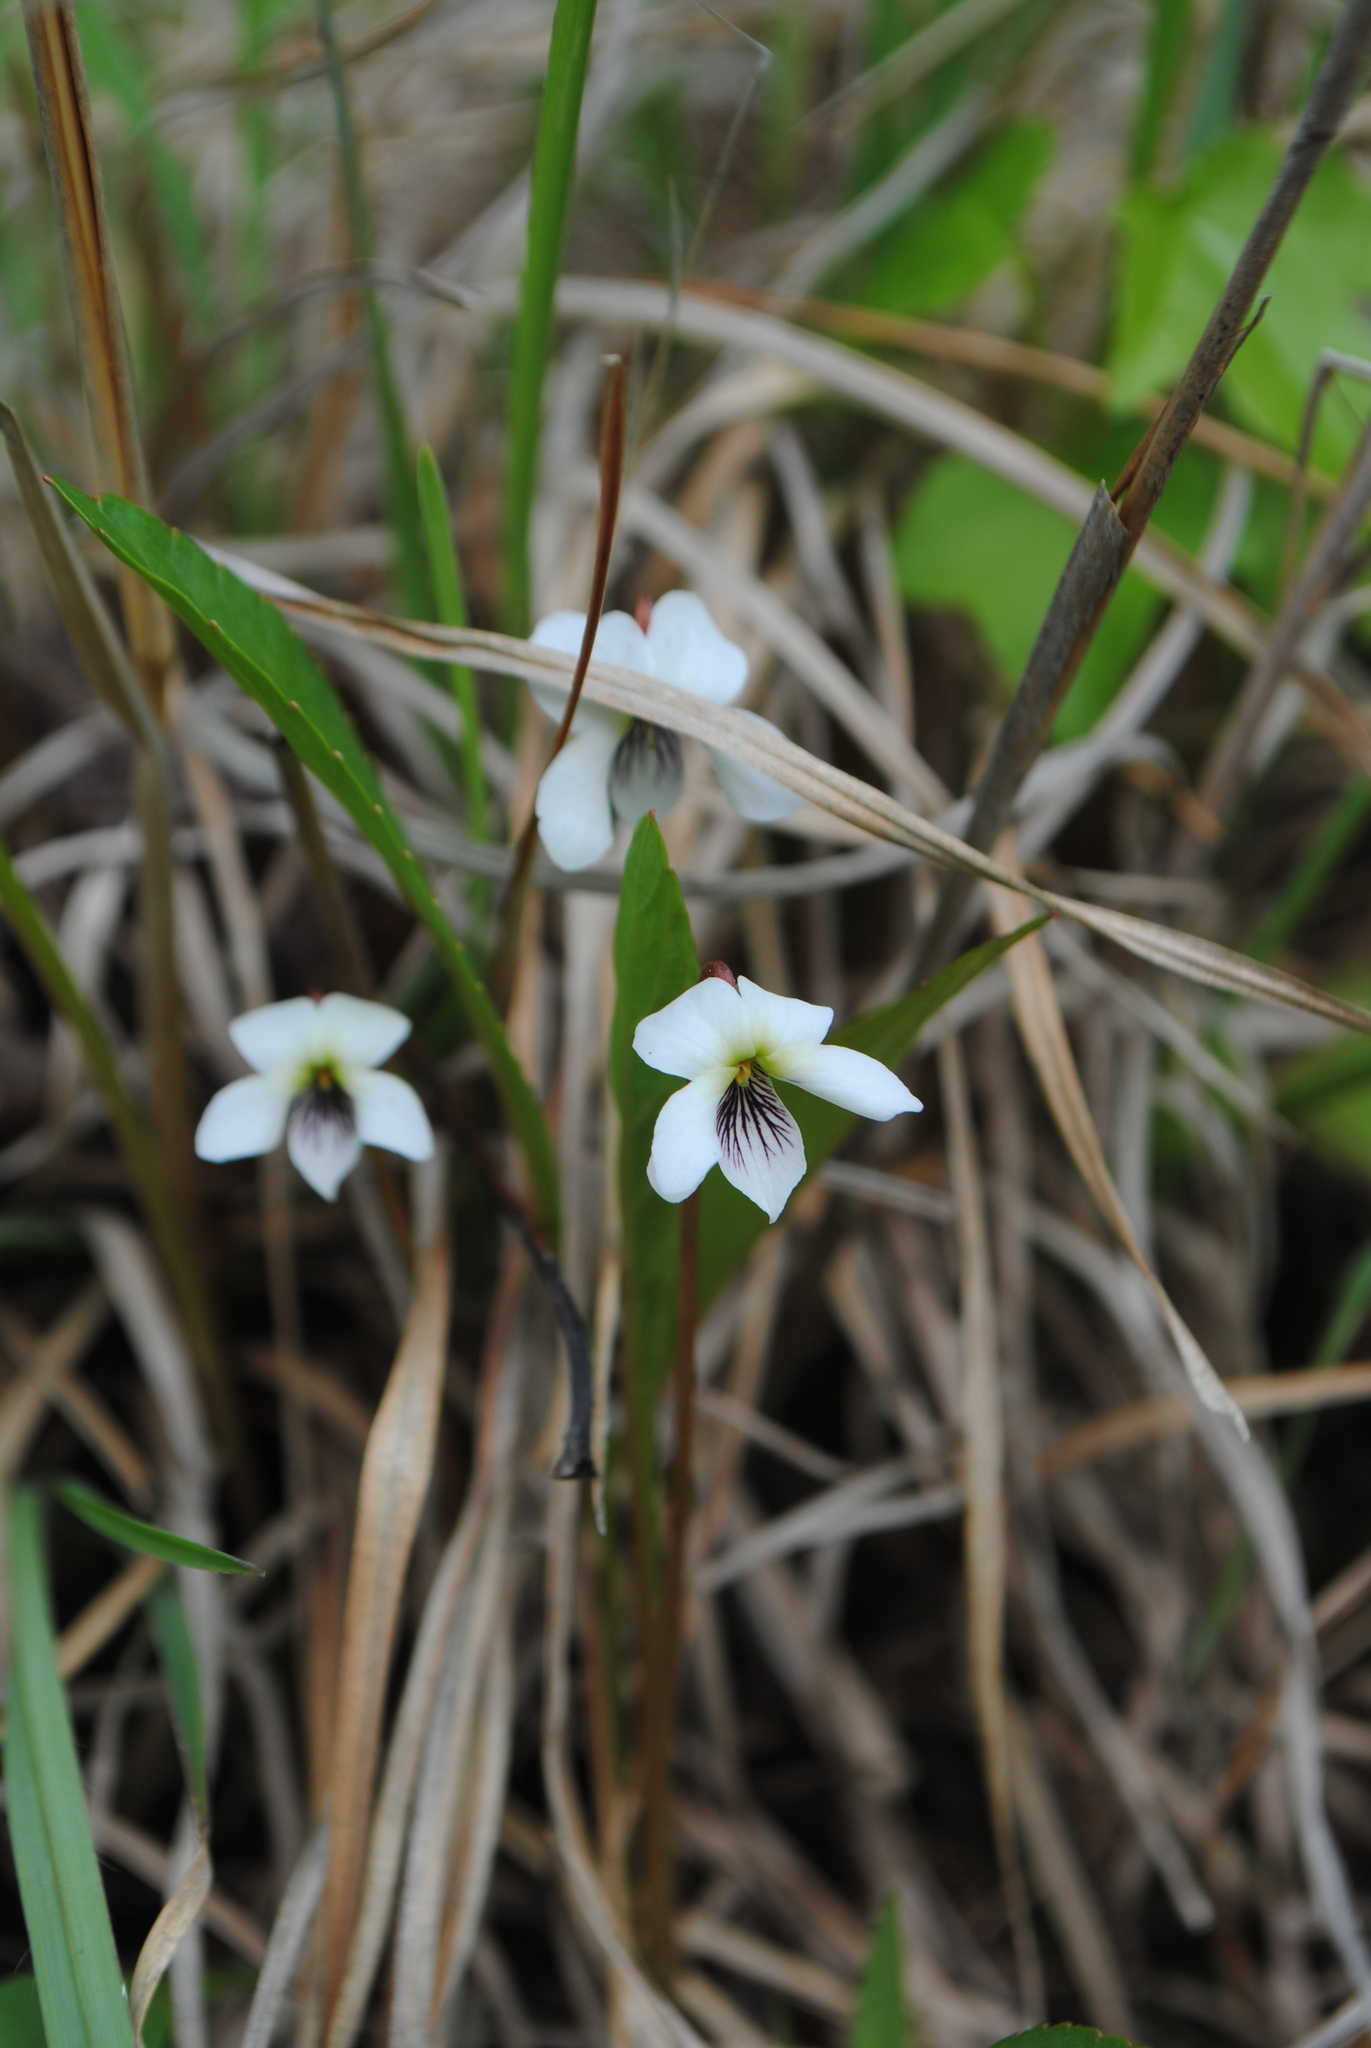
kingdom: Plantae
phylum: Tracheophyta
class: Magnoliopsida
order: Malpighiales
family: Violaceae
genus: Viola
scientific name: Viola lanceolata
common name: Bog white violet
